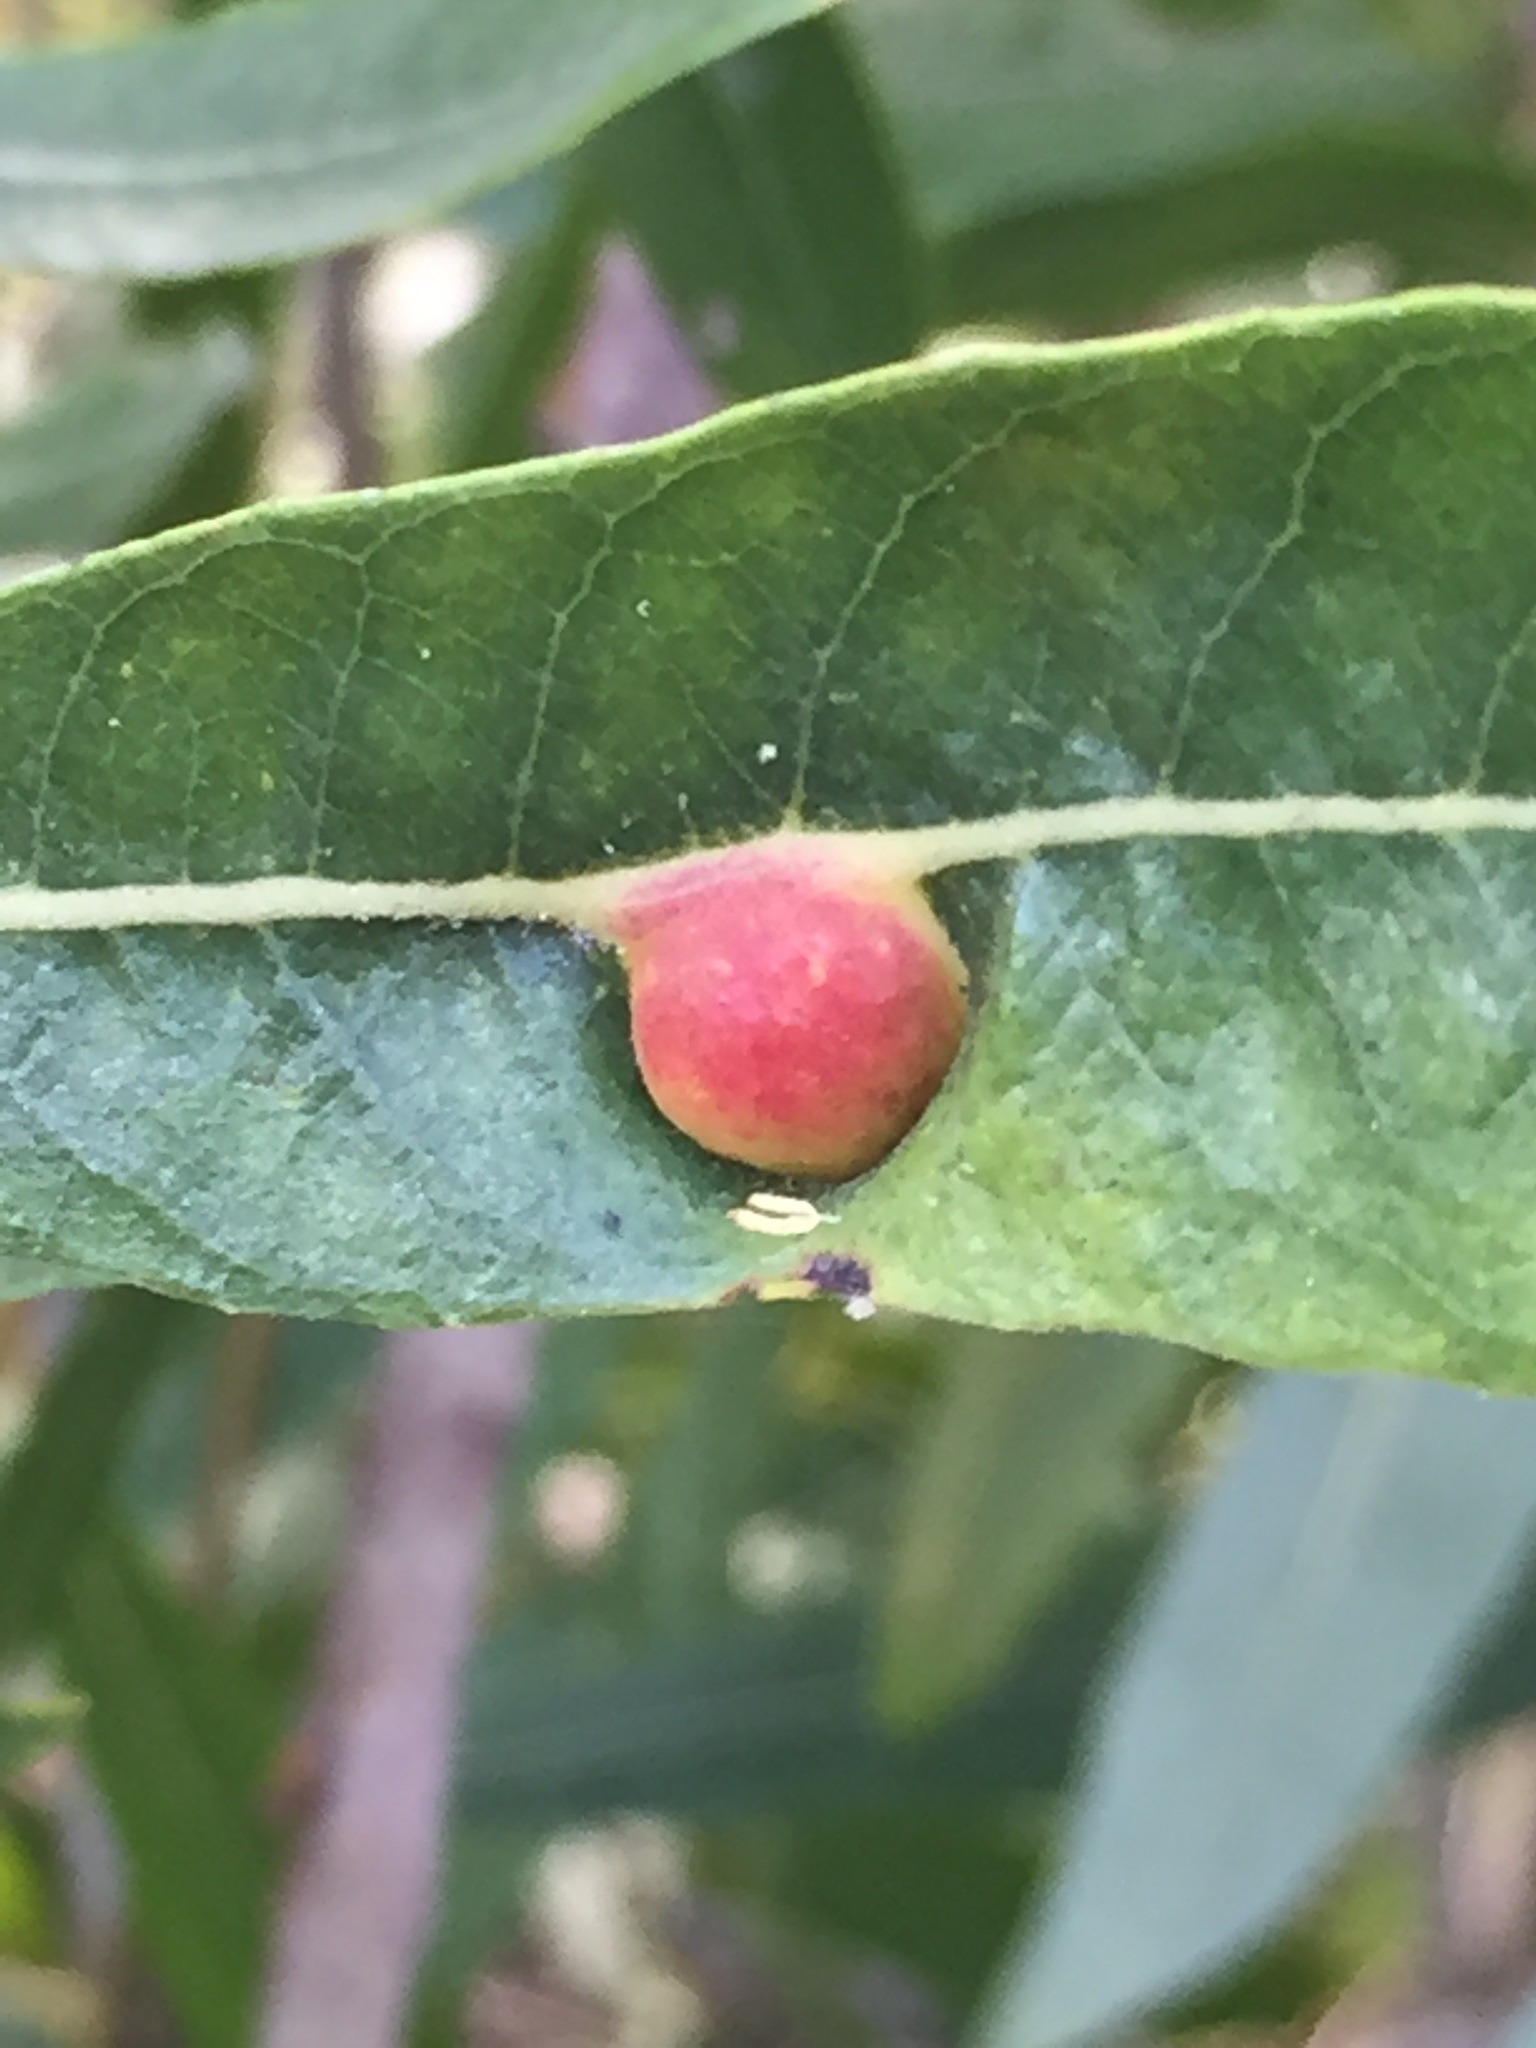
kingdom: Animalia
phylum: Arthropoda
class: Insecta
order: Hymenoptera
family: Tenthredinidae
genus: Euura
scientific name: Euura
